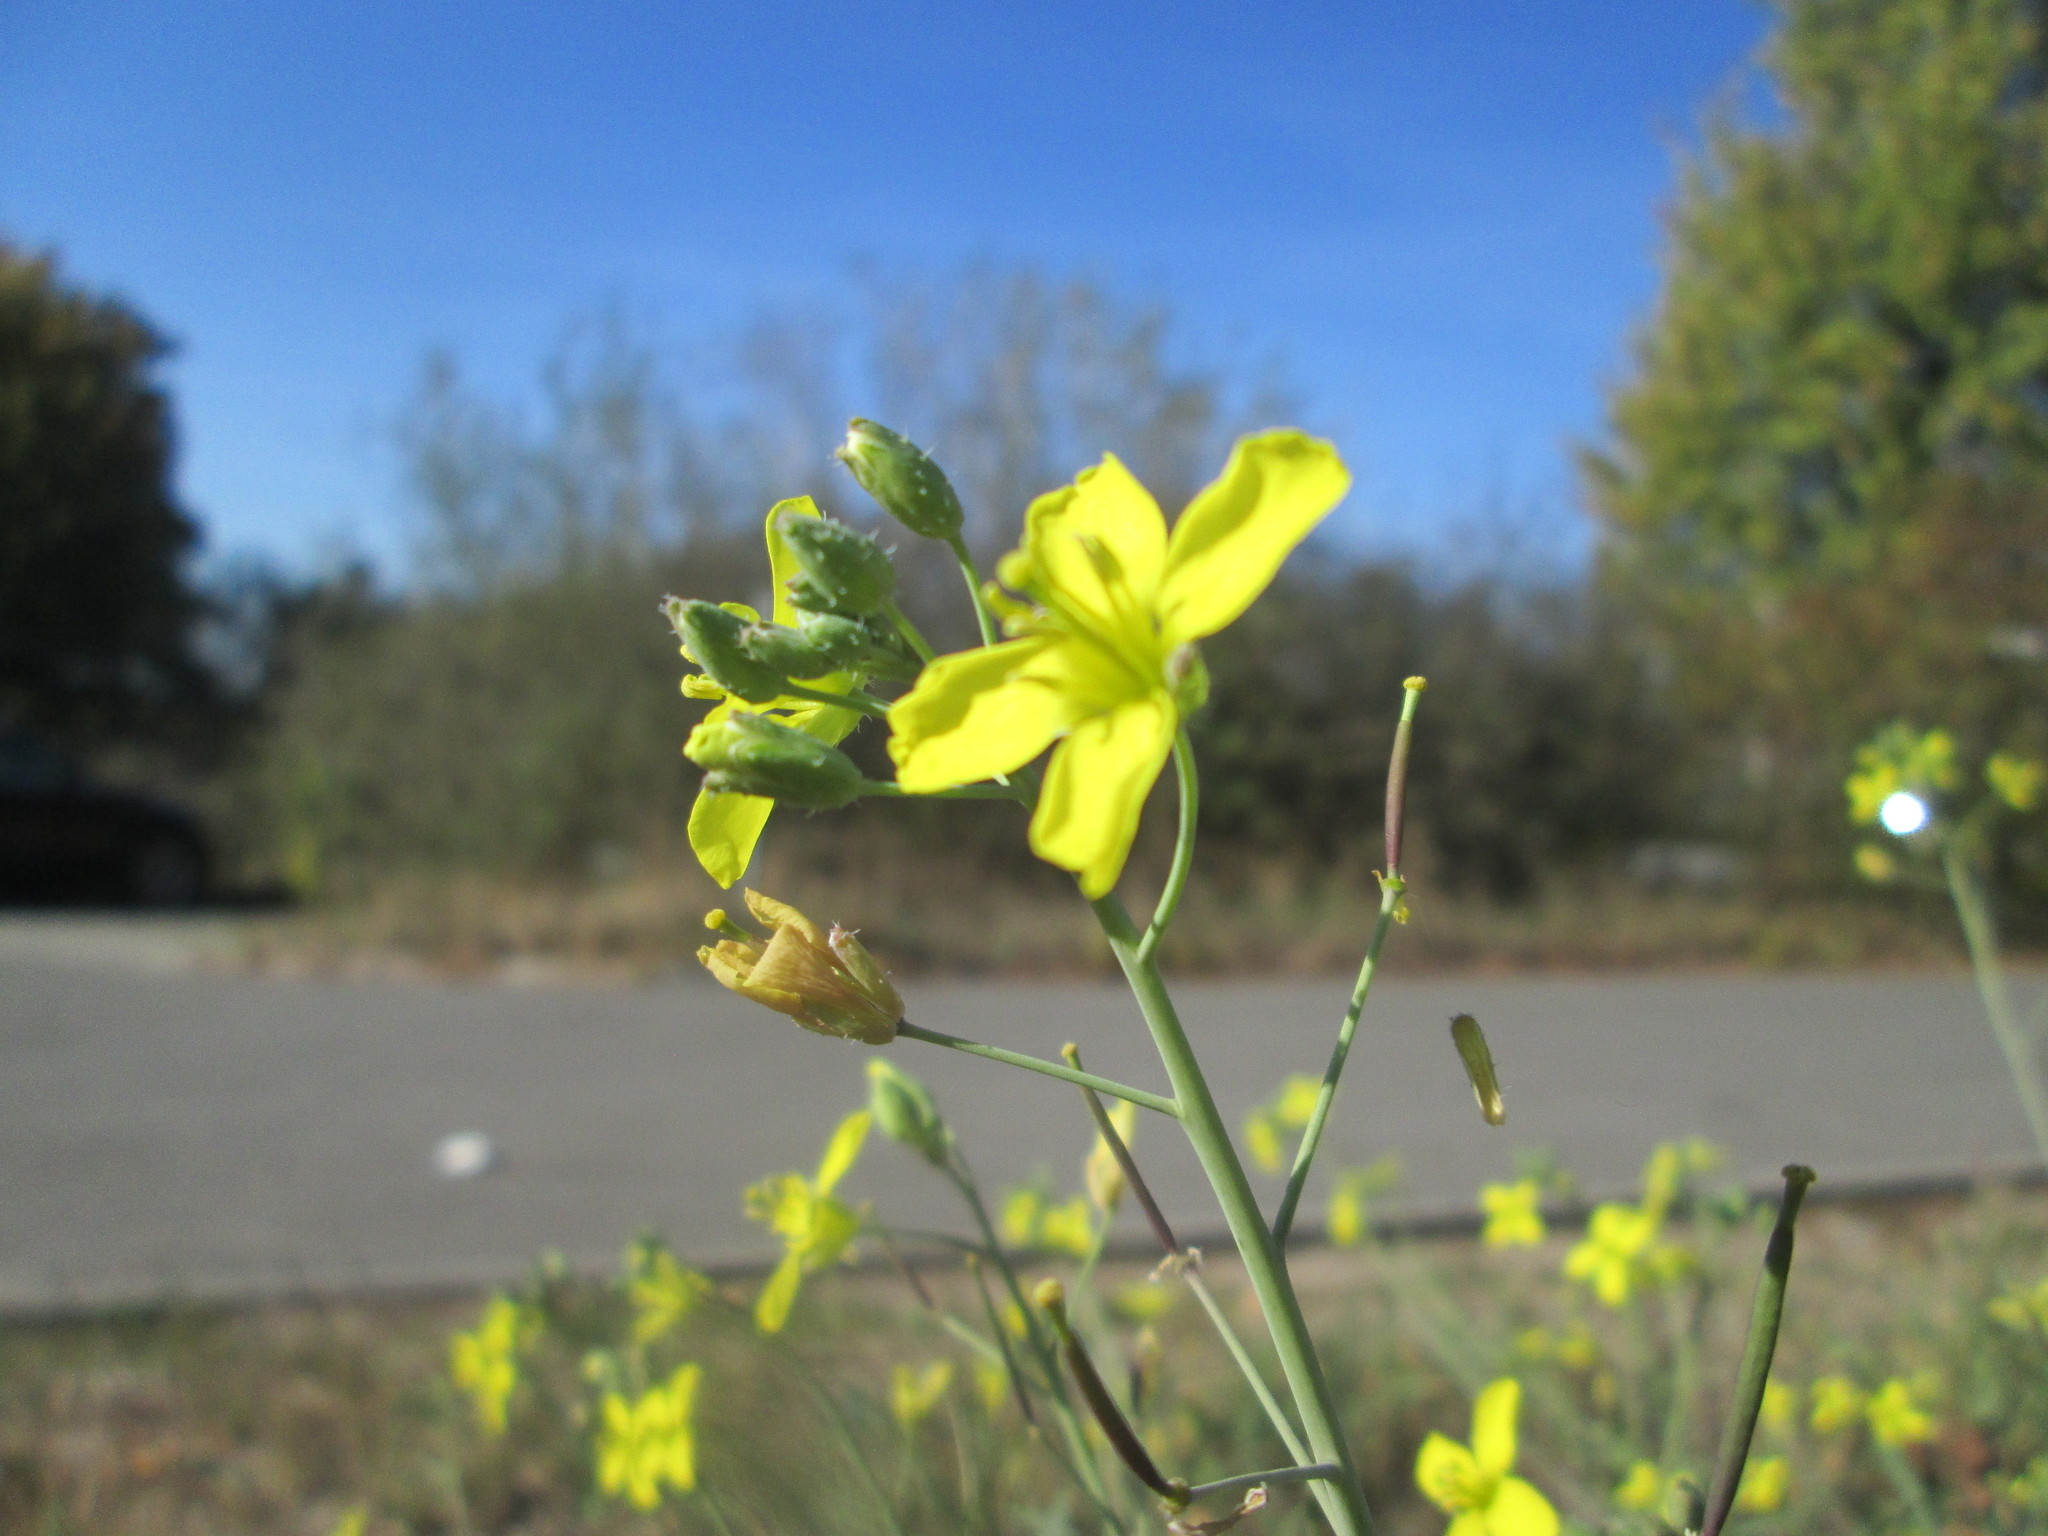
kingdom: Plantae
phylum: Tracheophyta
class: Magnoliopsida
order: Brassicales
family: Brassicaceae
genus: Diplotaxis
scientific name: Diplotaxis tenuifolia
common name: Perennial wall-rocket
